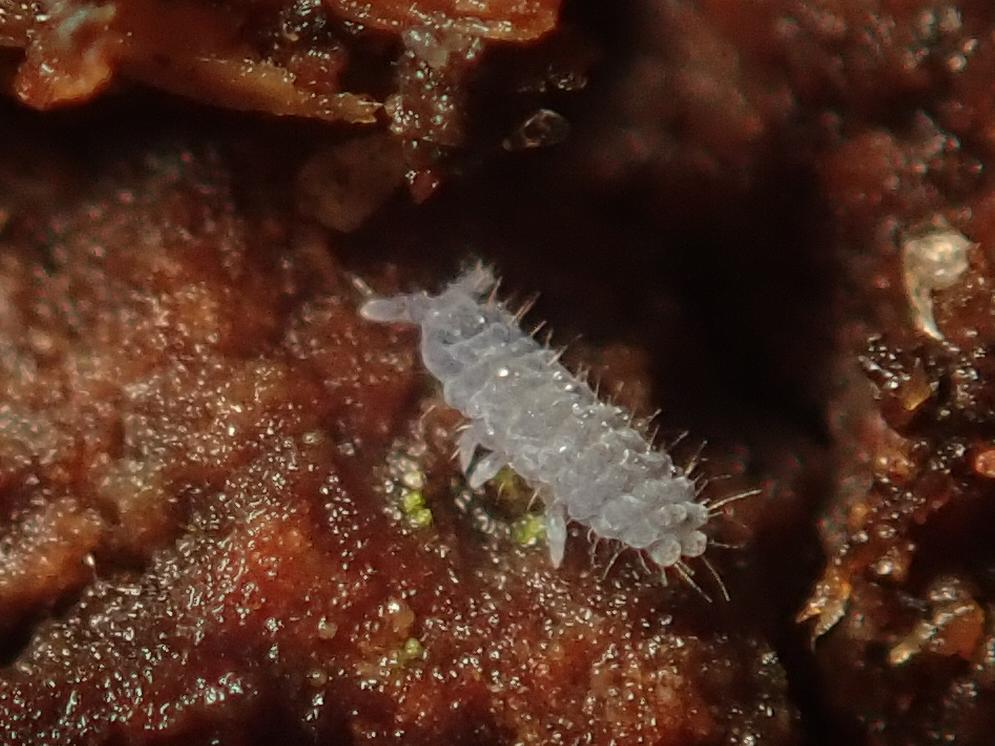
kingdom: Animalia
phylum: Arthropoda
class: Collembola
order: Poduromorpha
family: Neanuridae
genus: Neanura
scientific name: Neanura muscorum
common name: Springtail
